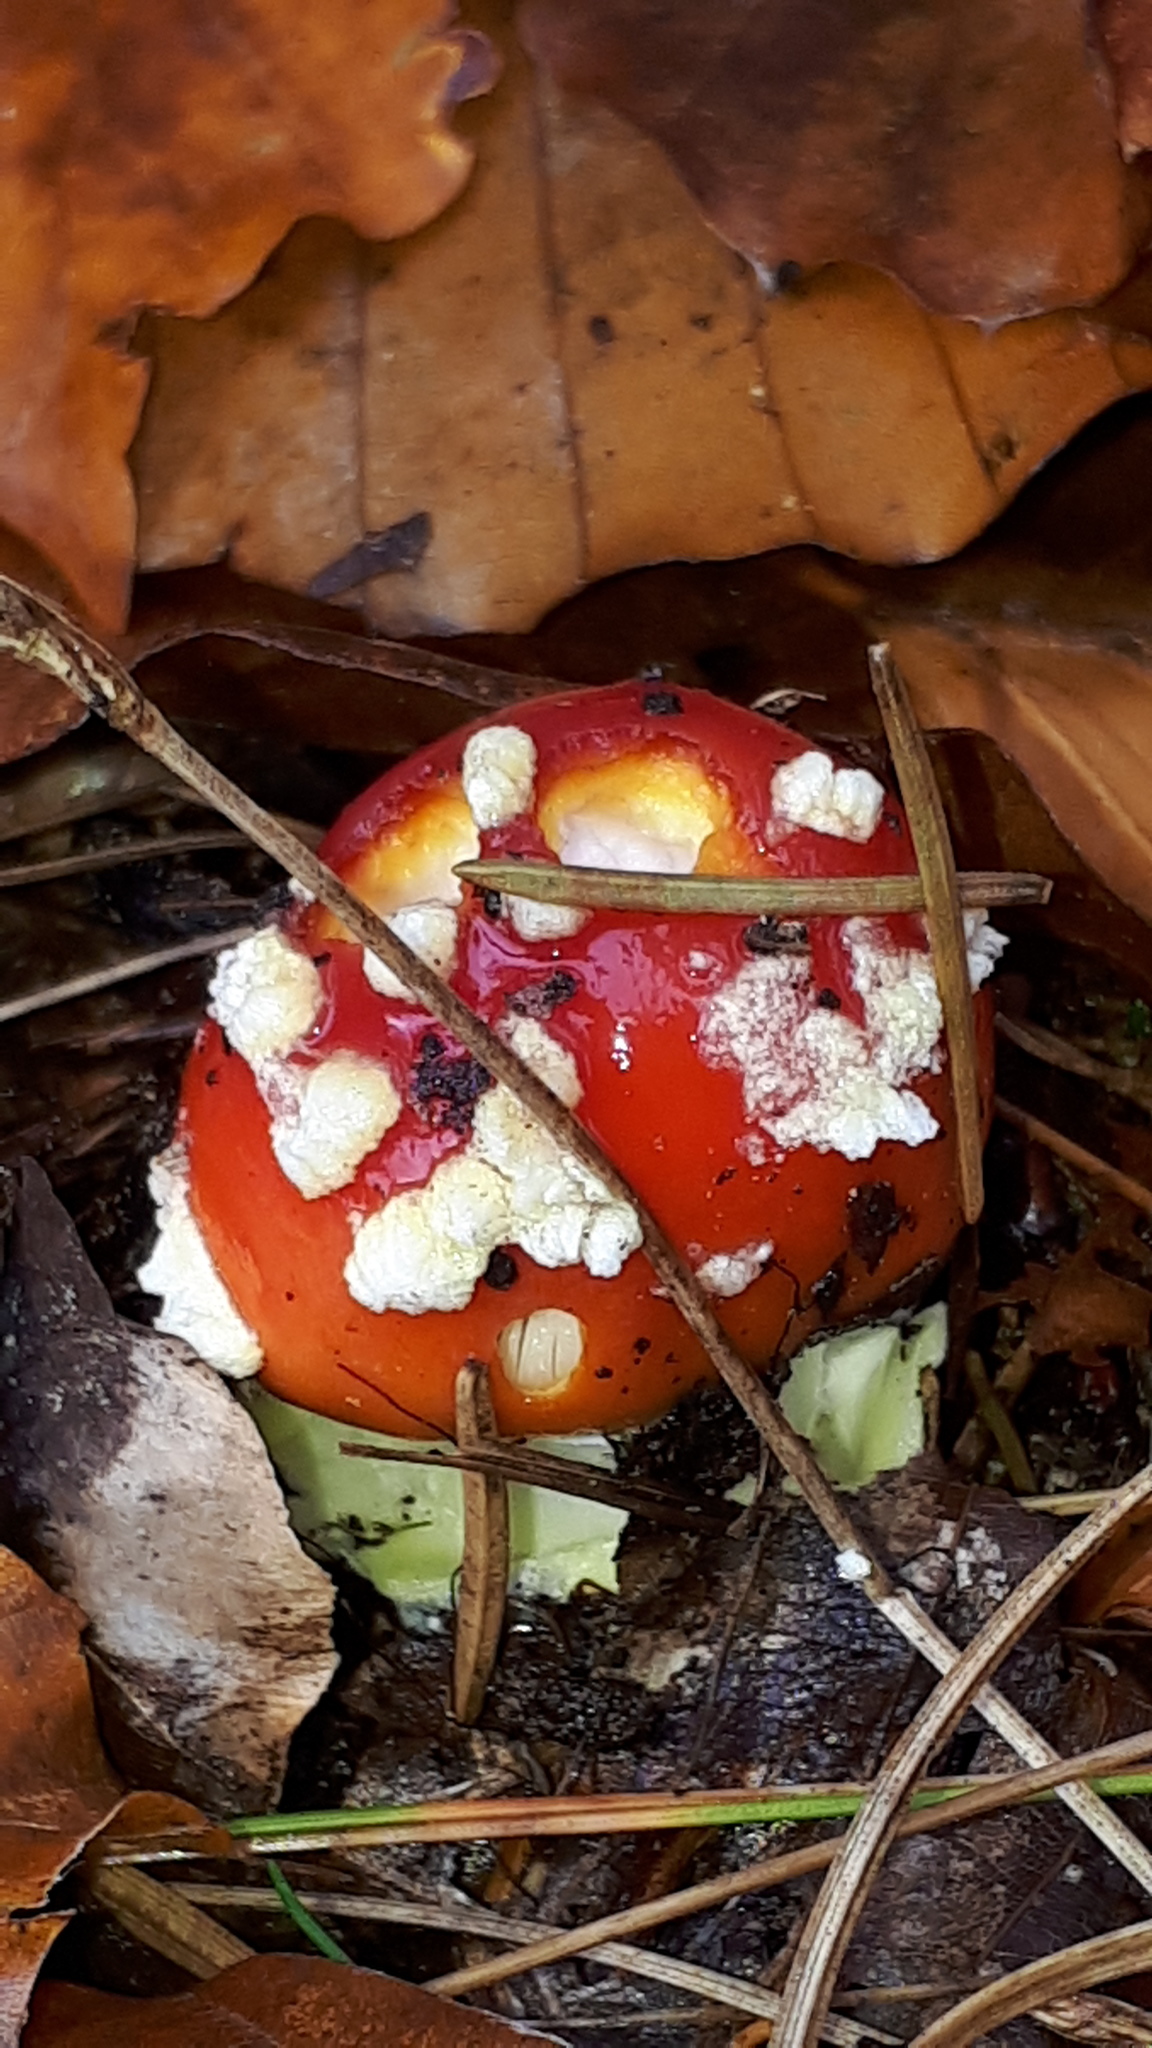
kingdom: Fungi
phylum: Basidiomycota
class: Agaricomycetes
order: Agaricales
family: Amanitaceae
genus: Amanita
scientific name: Amanita muscaria
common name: Fly agaric
